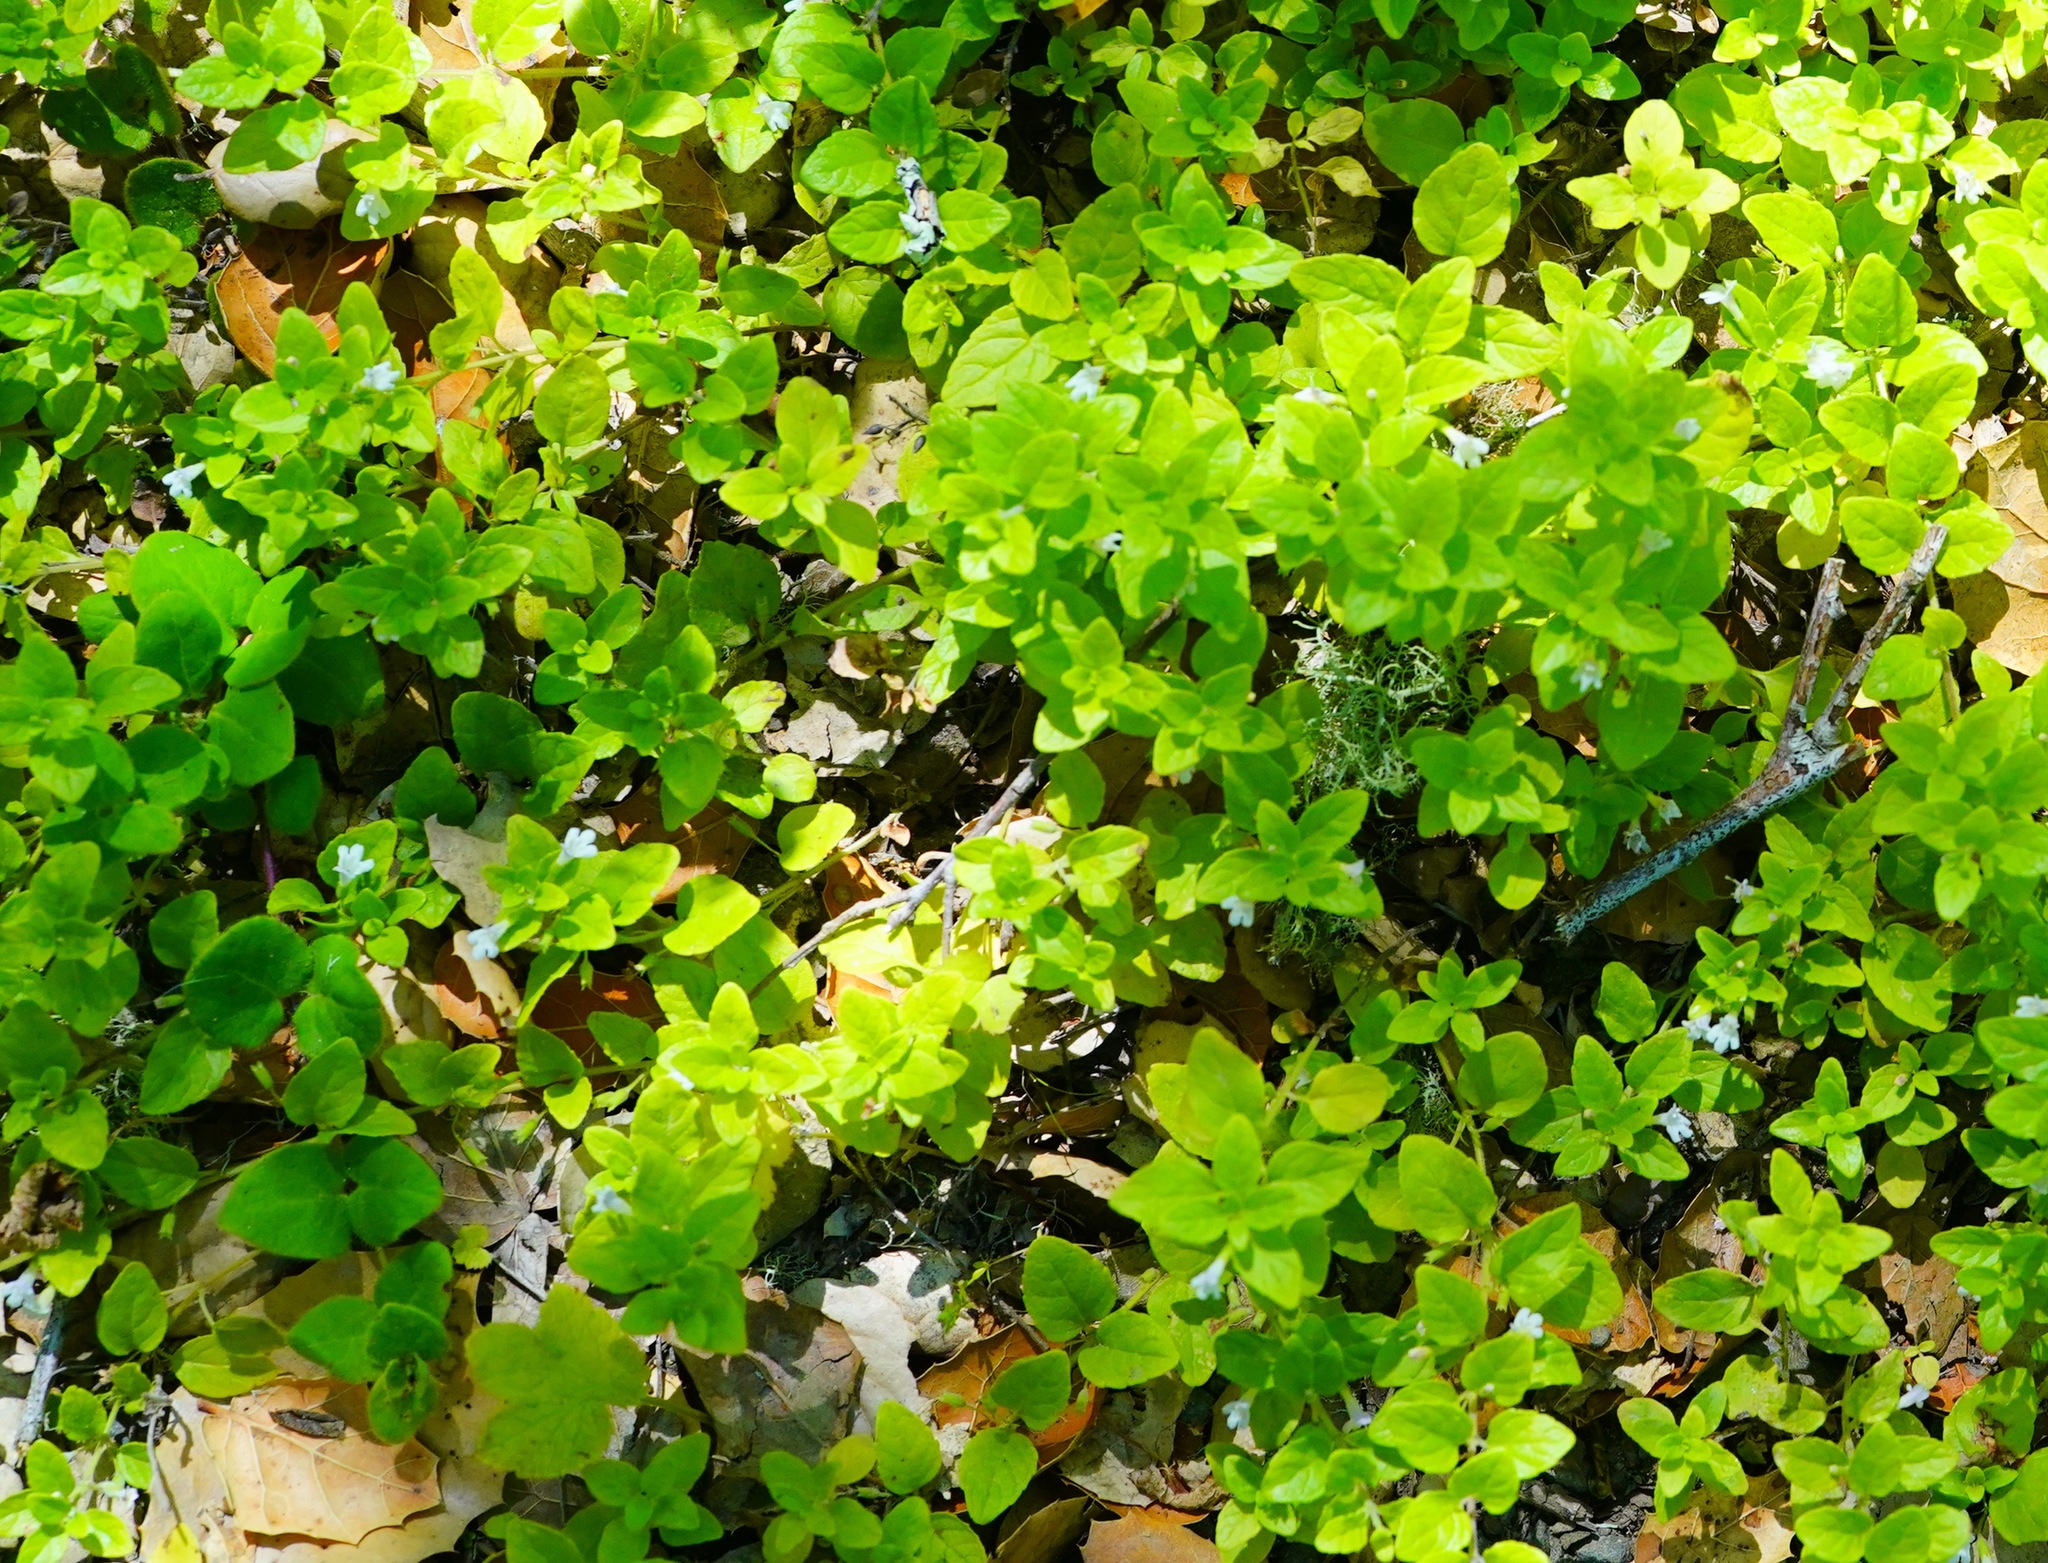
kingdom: Plantae
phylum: Tracheophyta
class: Magnoliopsida
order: Lamiales
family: Lamiaceae
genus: Micromeria
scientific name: Micromeria douglasii
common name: Yerba buena
